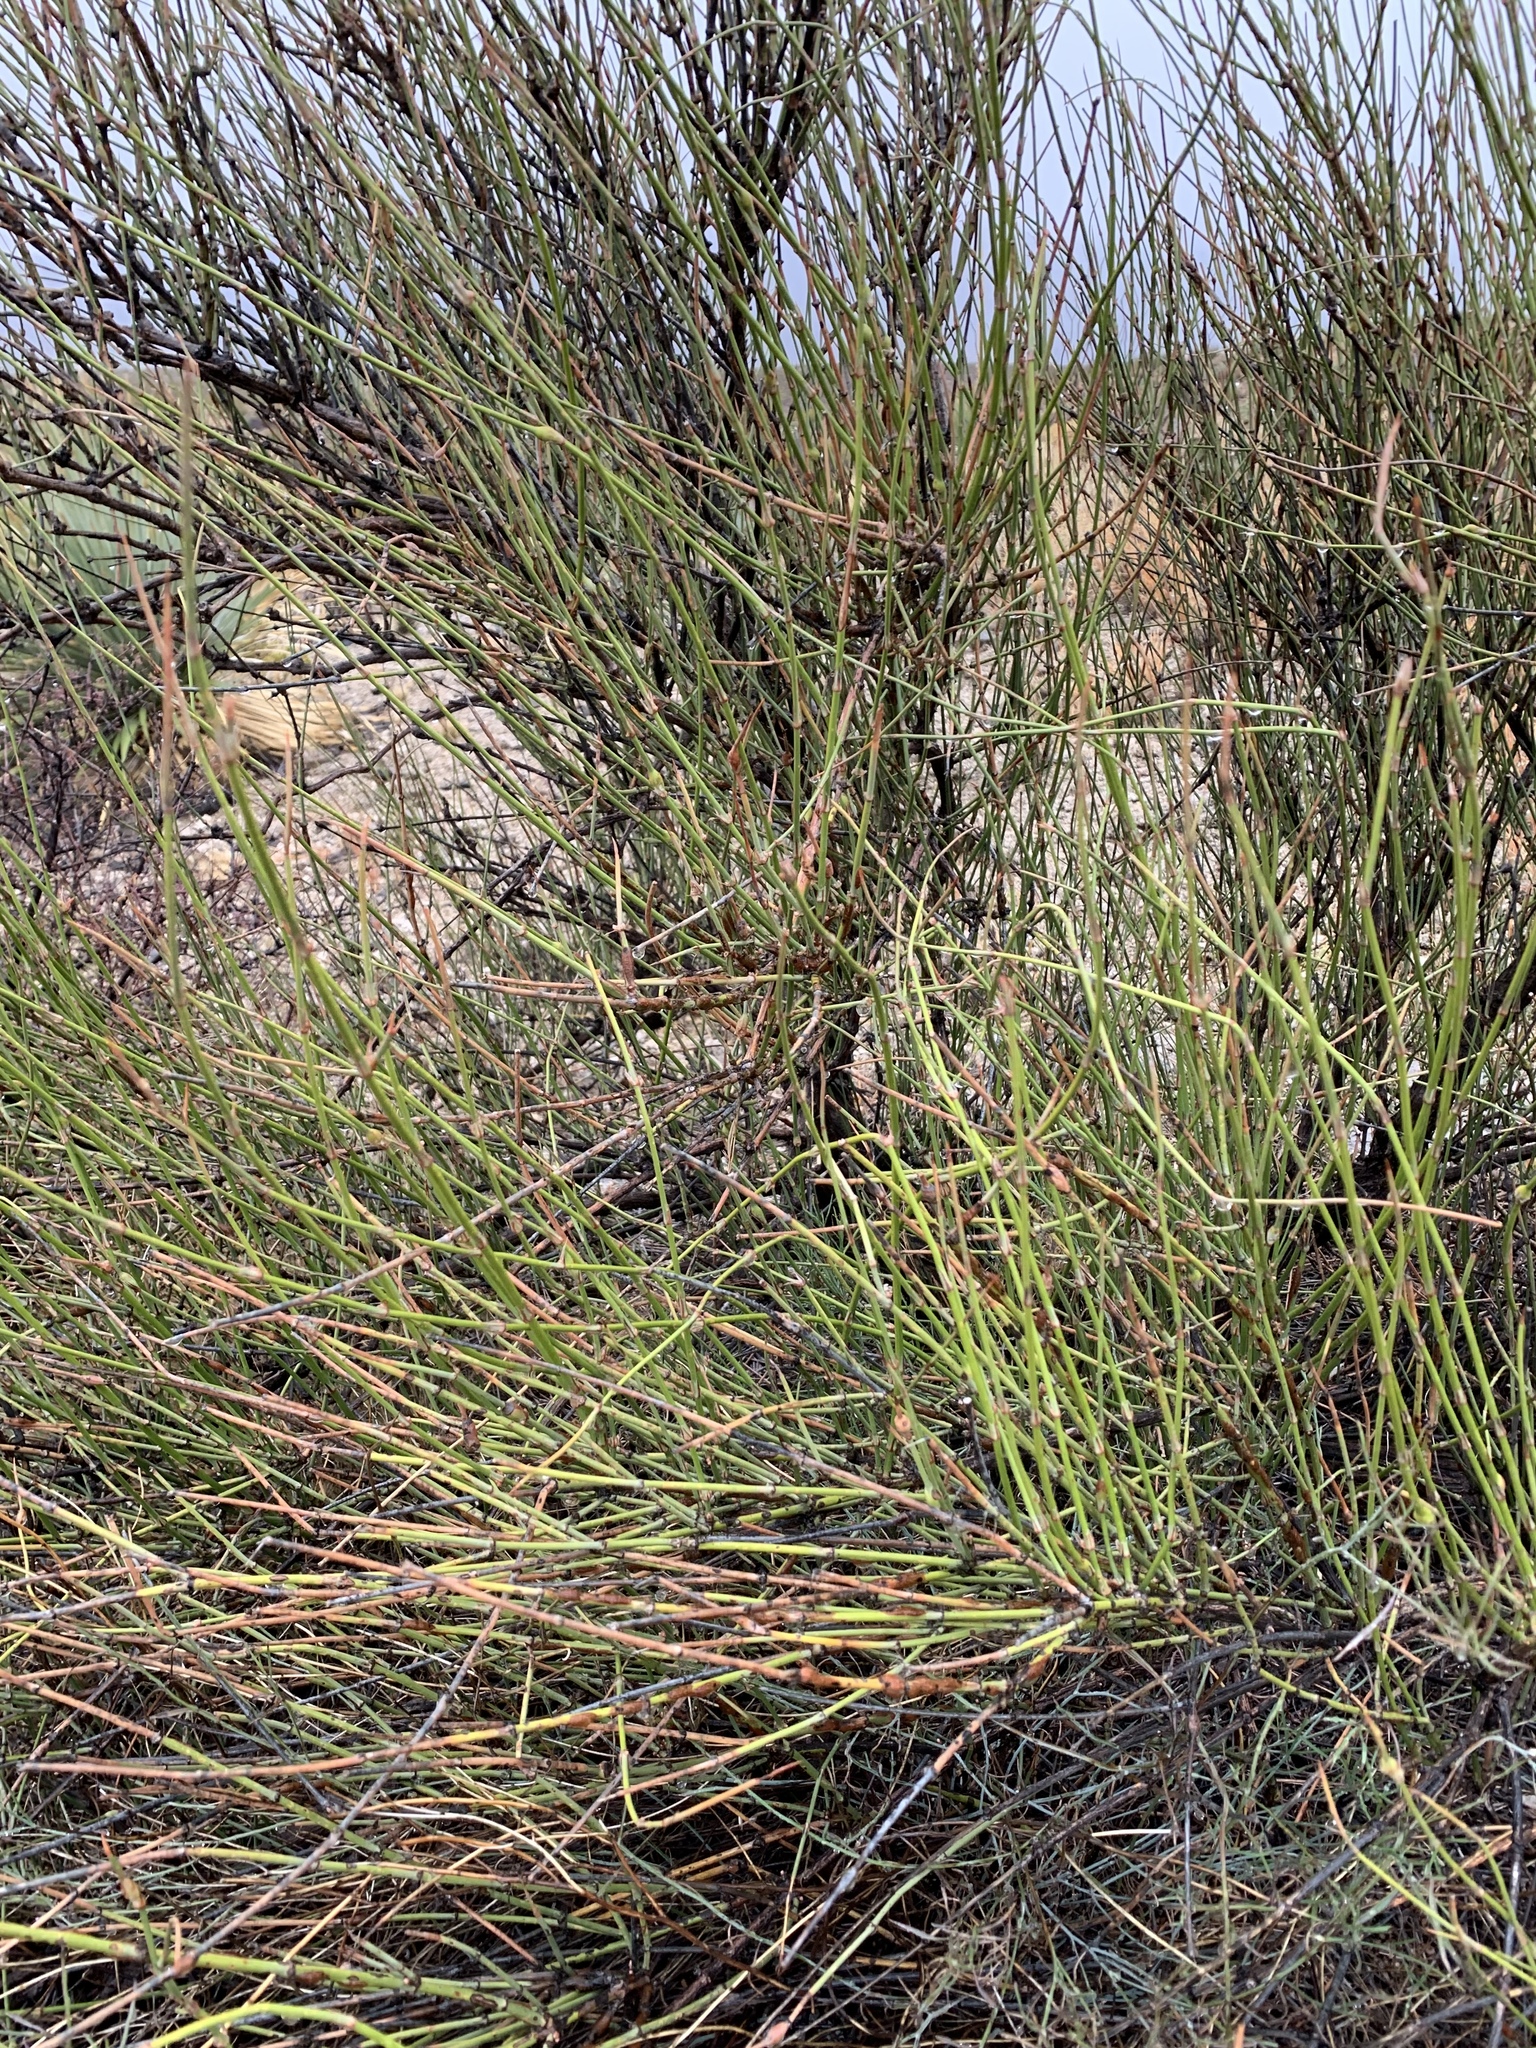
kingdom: Plantae
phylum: Tracheophyta
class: Gnetopsida
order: Ephedrales
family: Ephedraceae
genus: Ephedra
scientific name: Ephedra trifurca
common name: Mexican-tea
